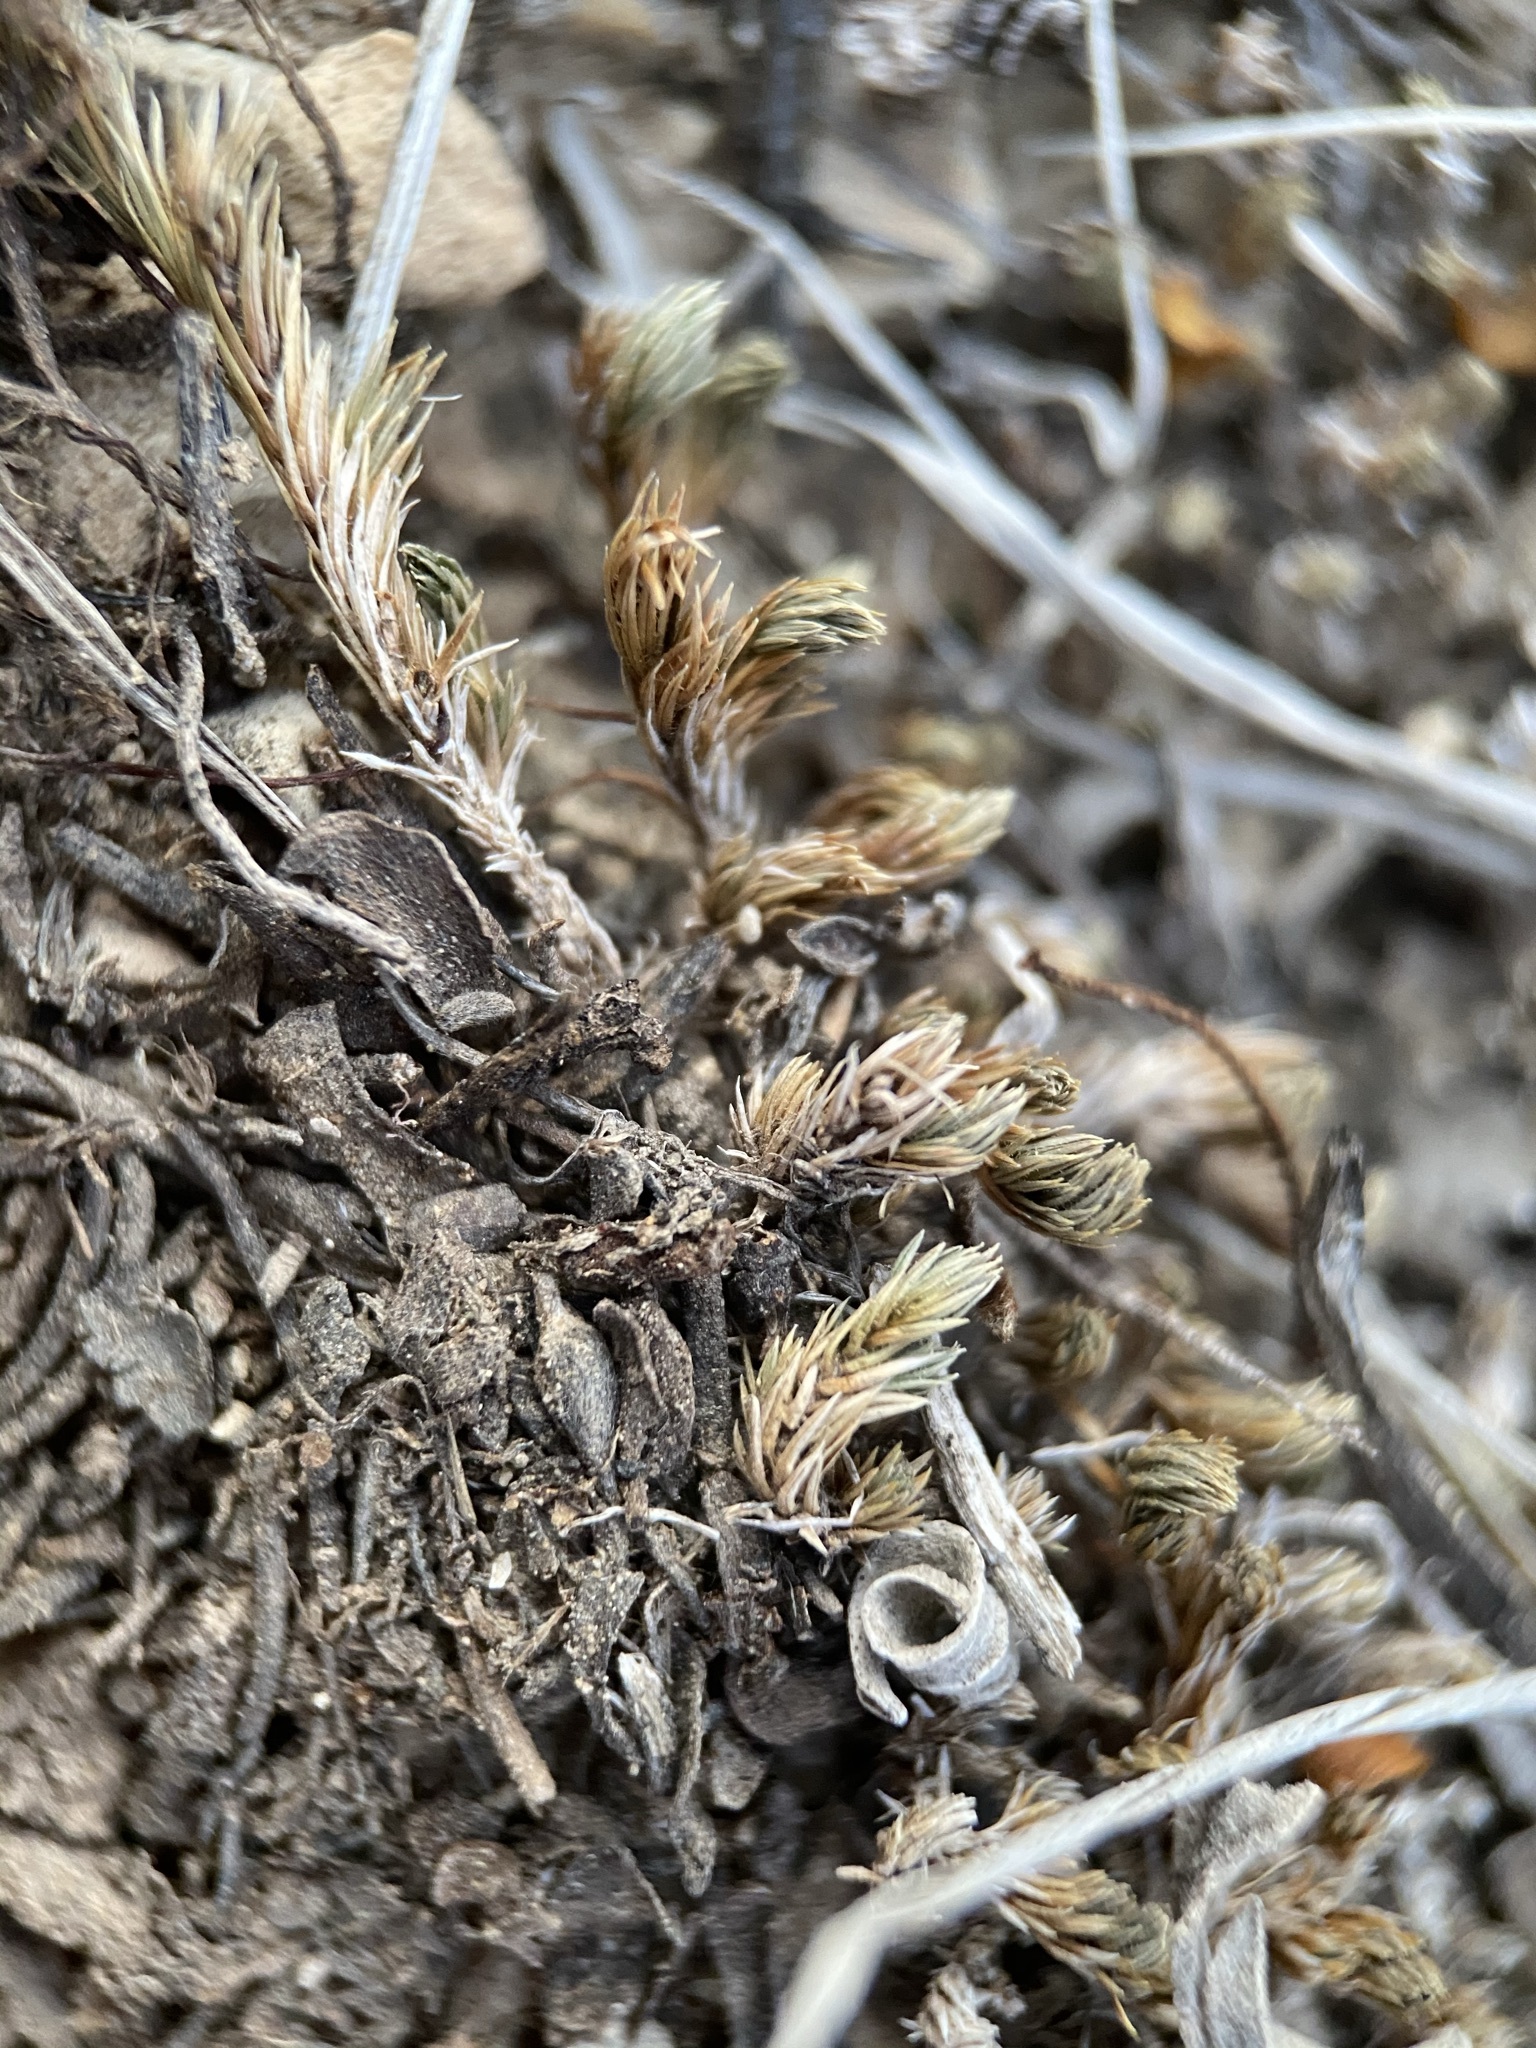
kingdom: Plantae
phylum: Tracheophyta
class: Lycopodiopsida
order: Selaginellales
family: Selaginellaceae
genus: Selaginella
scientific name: Selaginella wrightii
